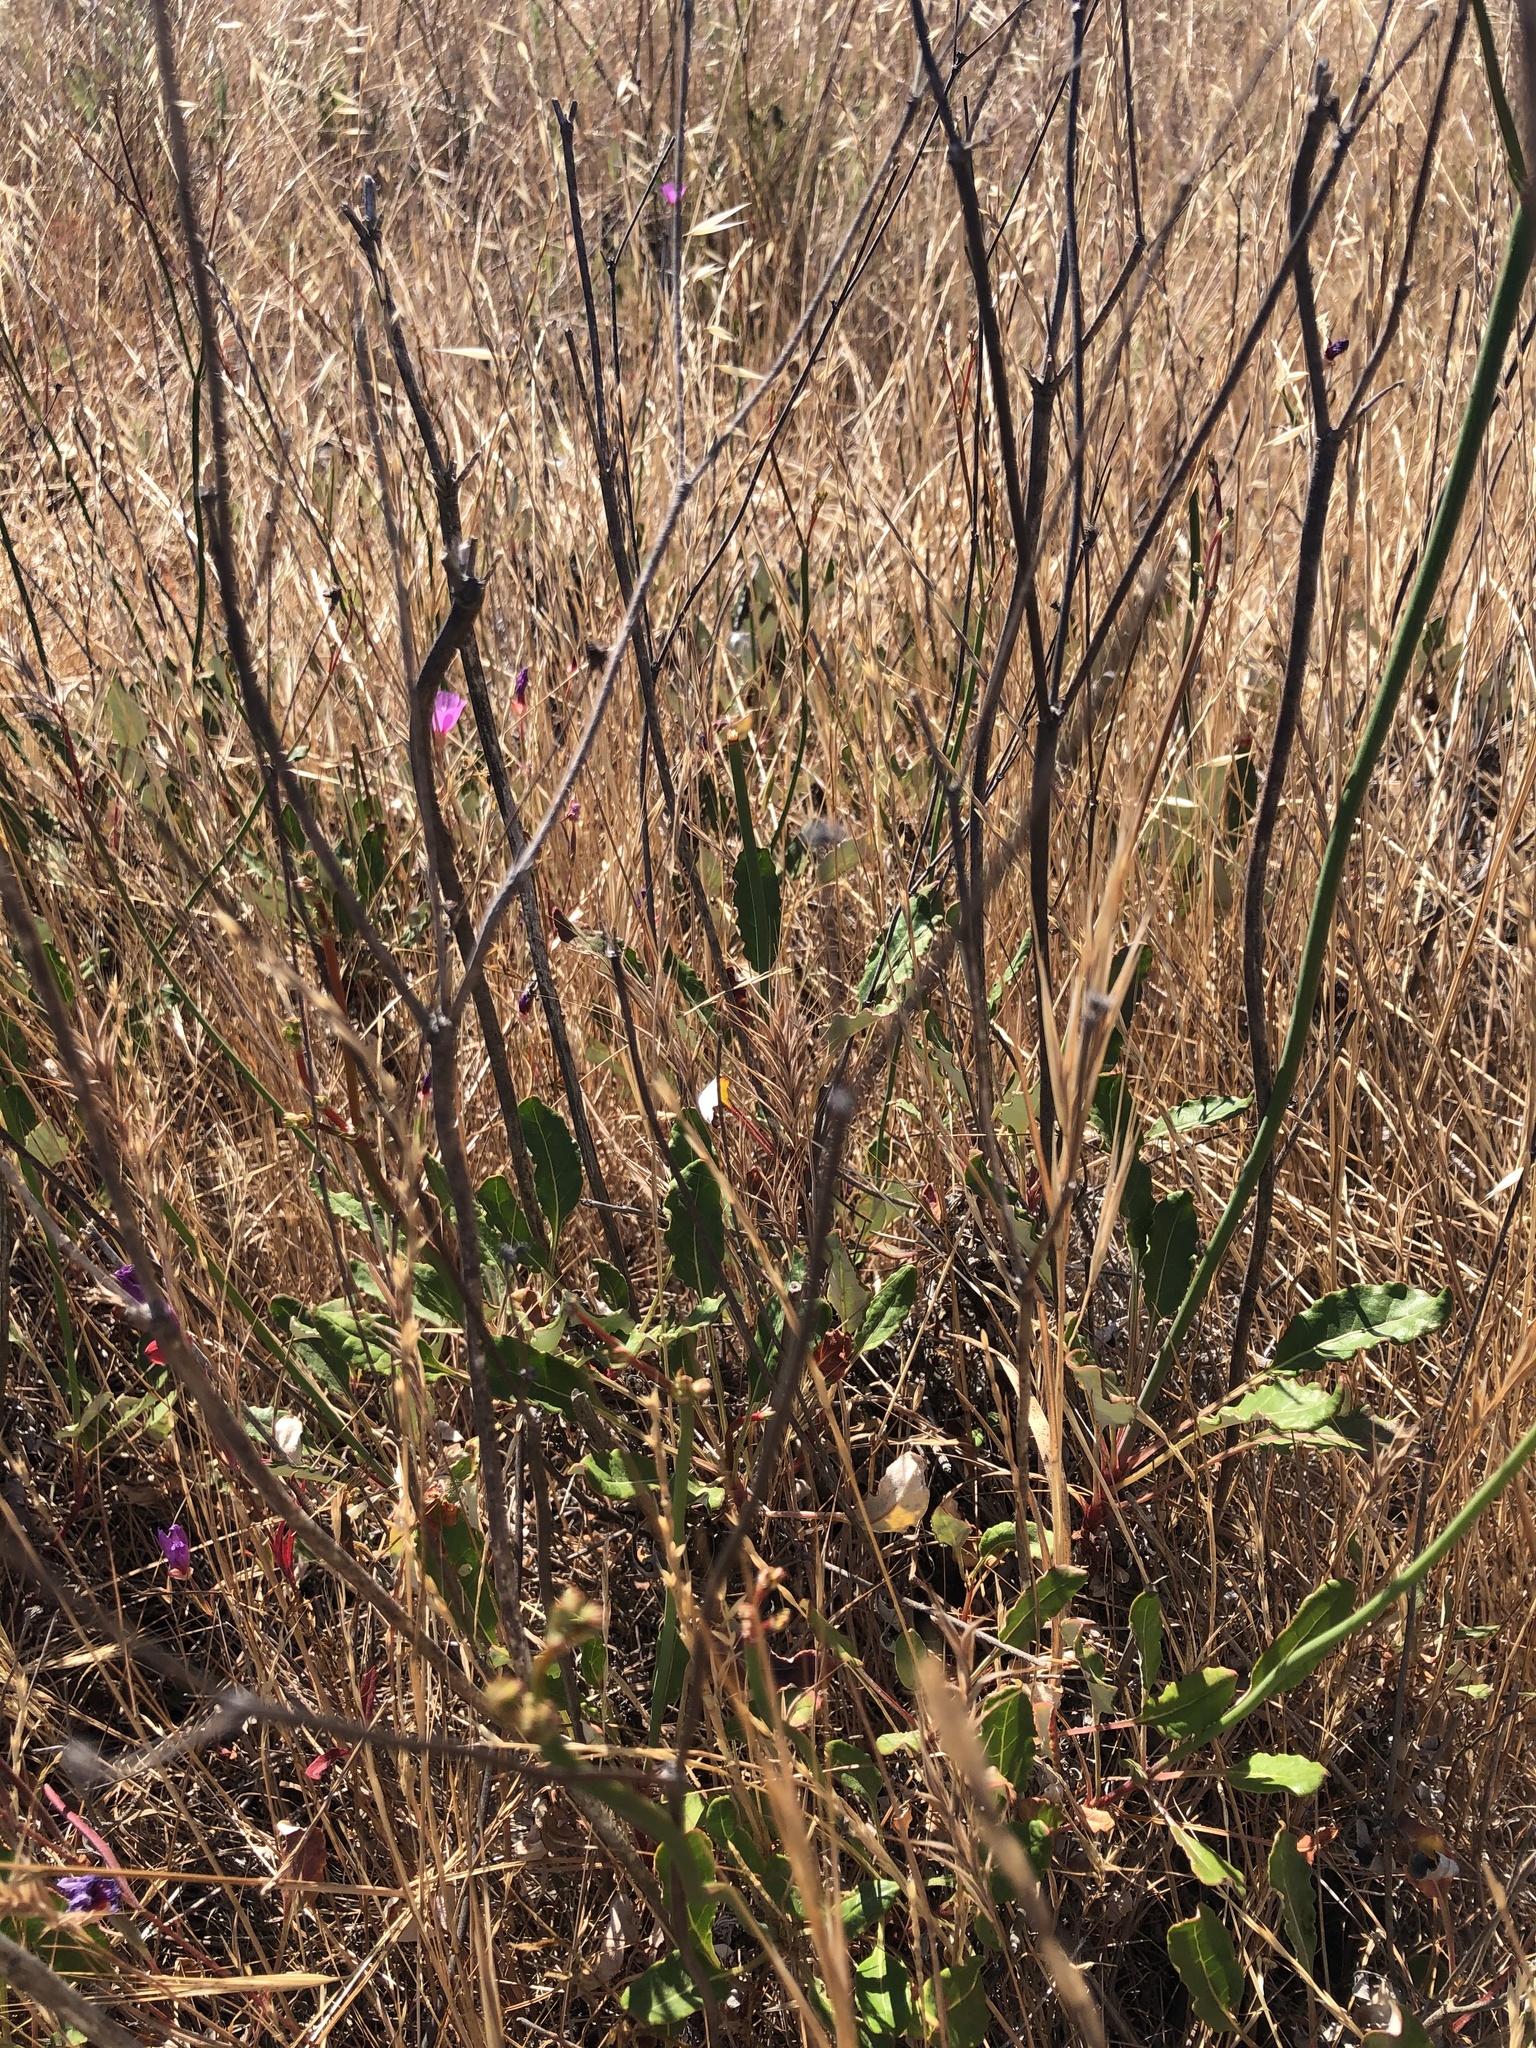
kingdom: Plantae
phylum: Tracheophyta
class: Magnoliopsida
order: Caryophyllales
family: Polygonaceae
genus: Eriogonum
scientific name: Eriogonum nudum
